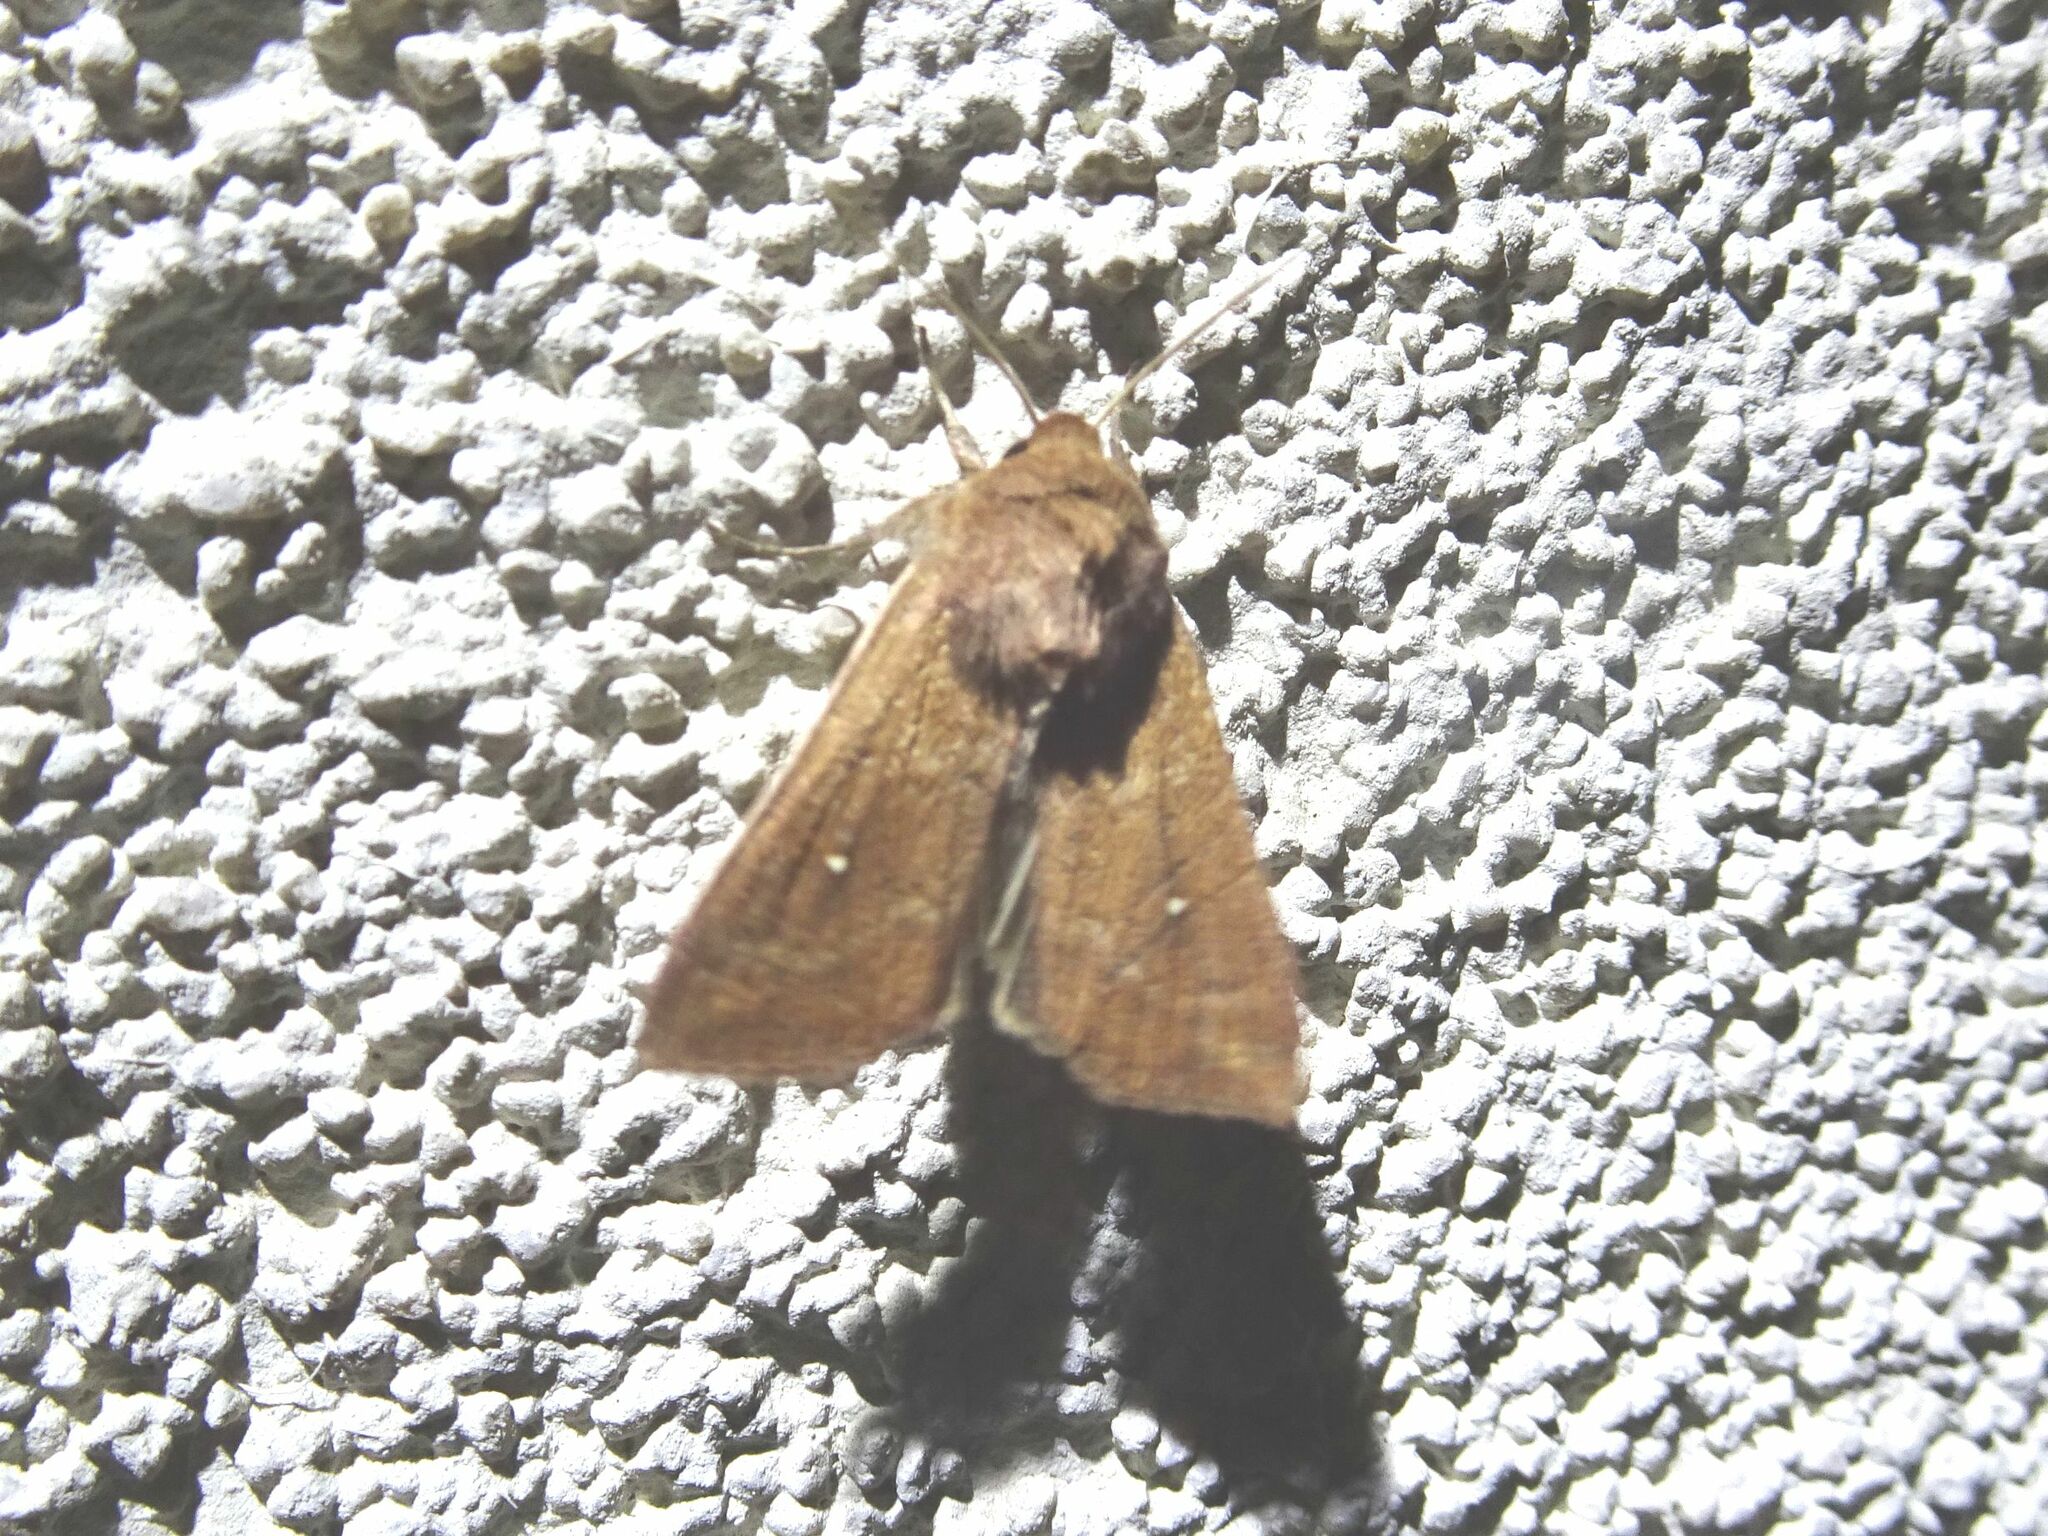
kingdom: Animalia
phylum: Arthropoda
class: Insecta
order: Lepidoptera
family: Noctuidae
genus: Mythimna
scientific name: Mythimna albipuncta
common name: White-point
